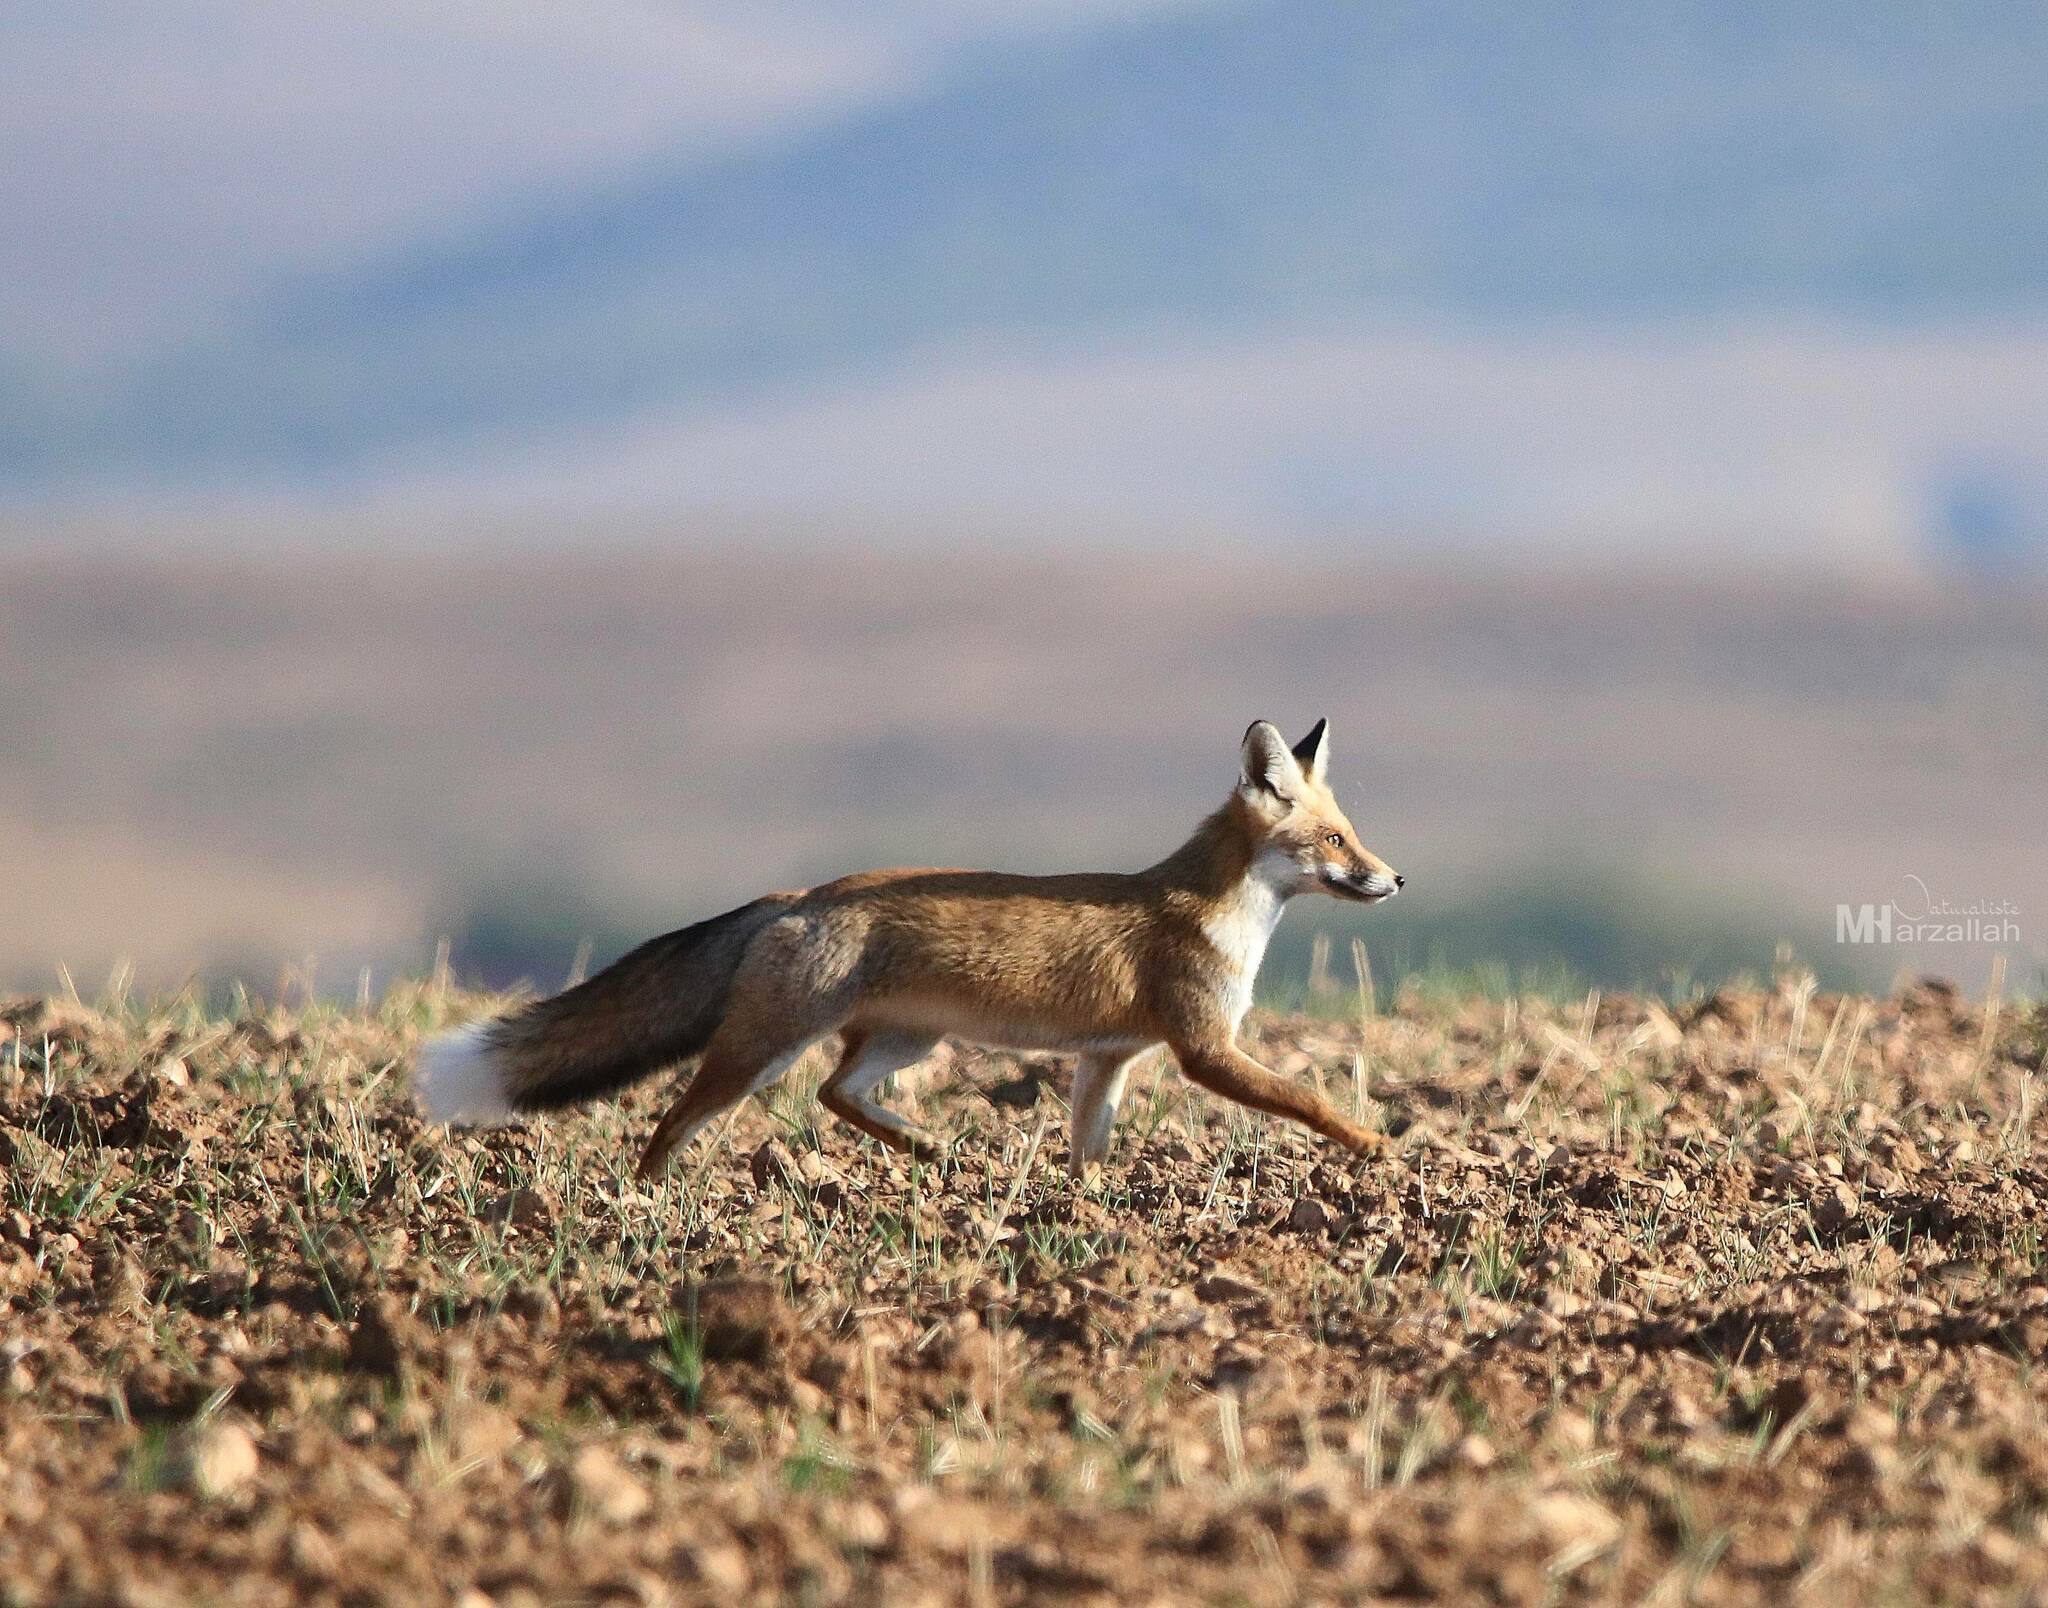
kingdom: Animalia
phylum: Chordata
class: Mammalia
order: Carnivora
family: Canidae
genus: Vulpes
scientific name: Vulpes vulpes
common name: Red fox
